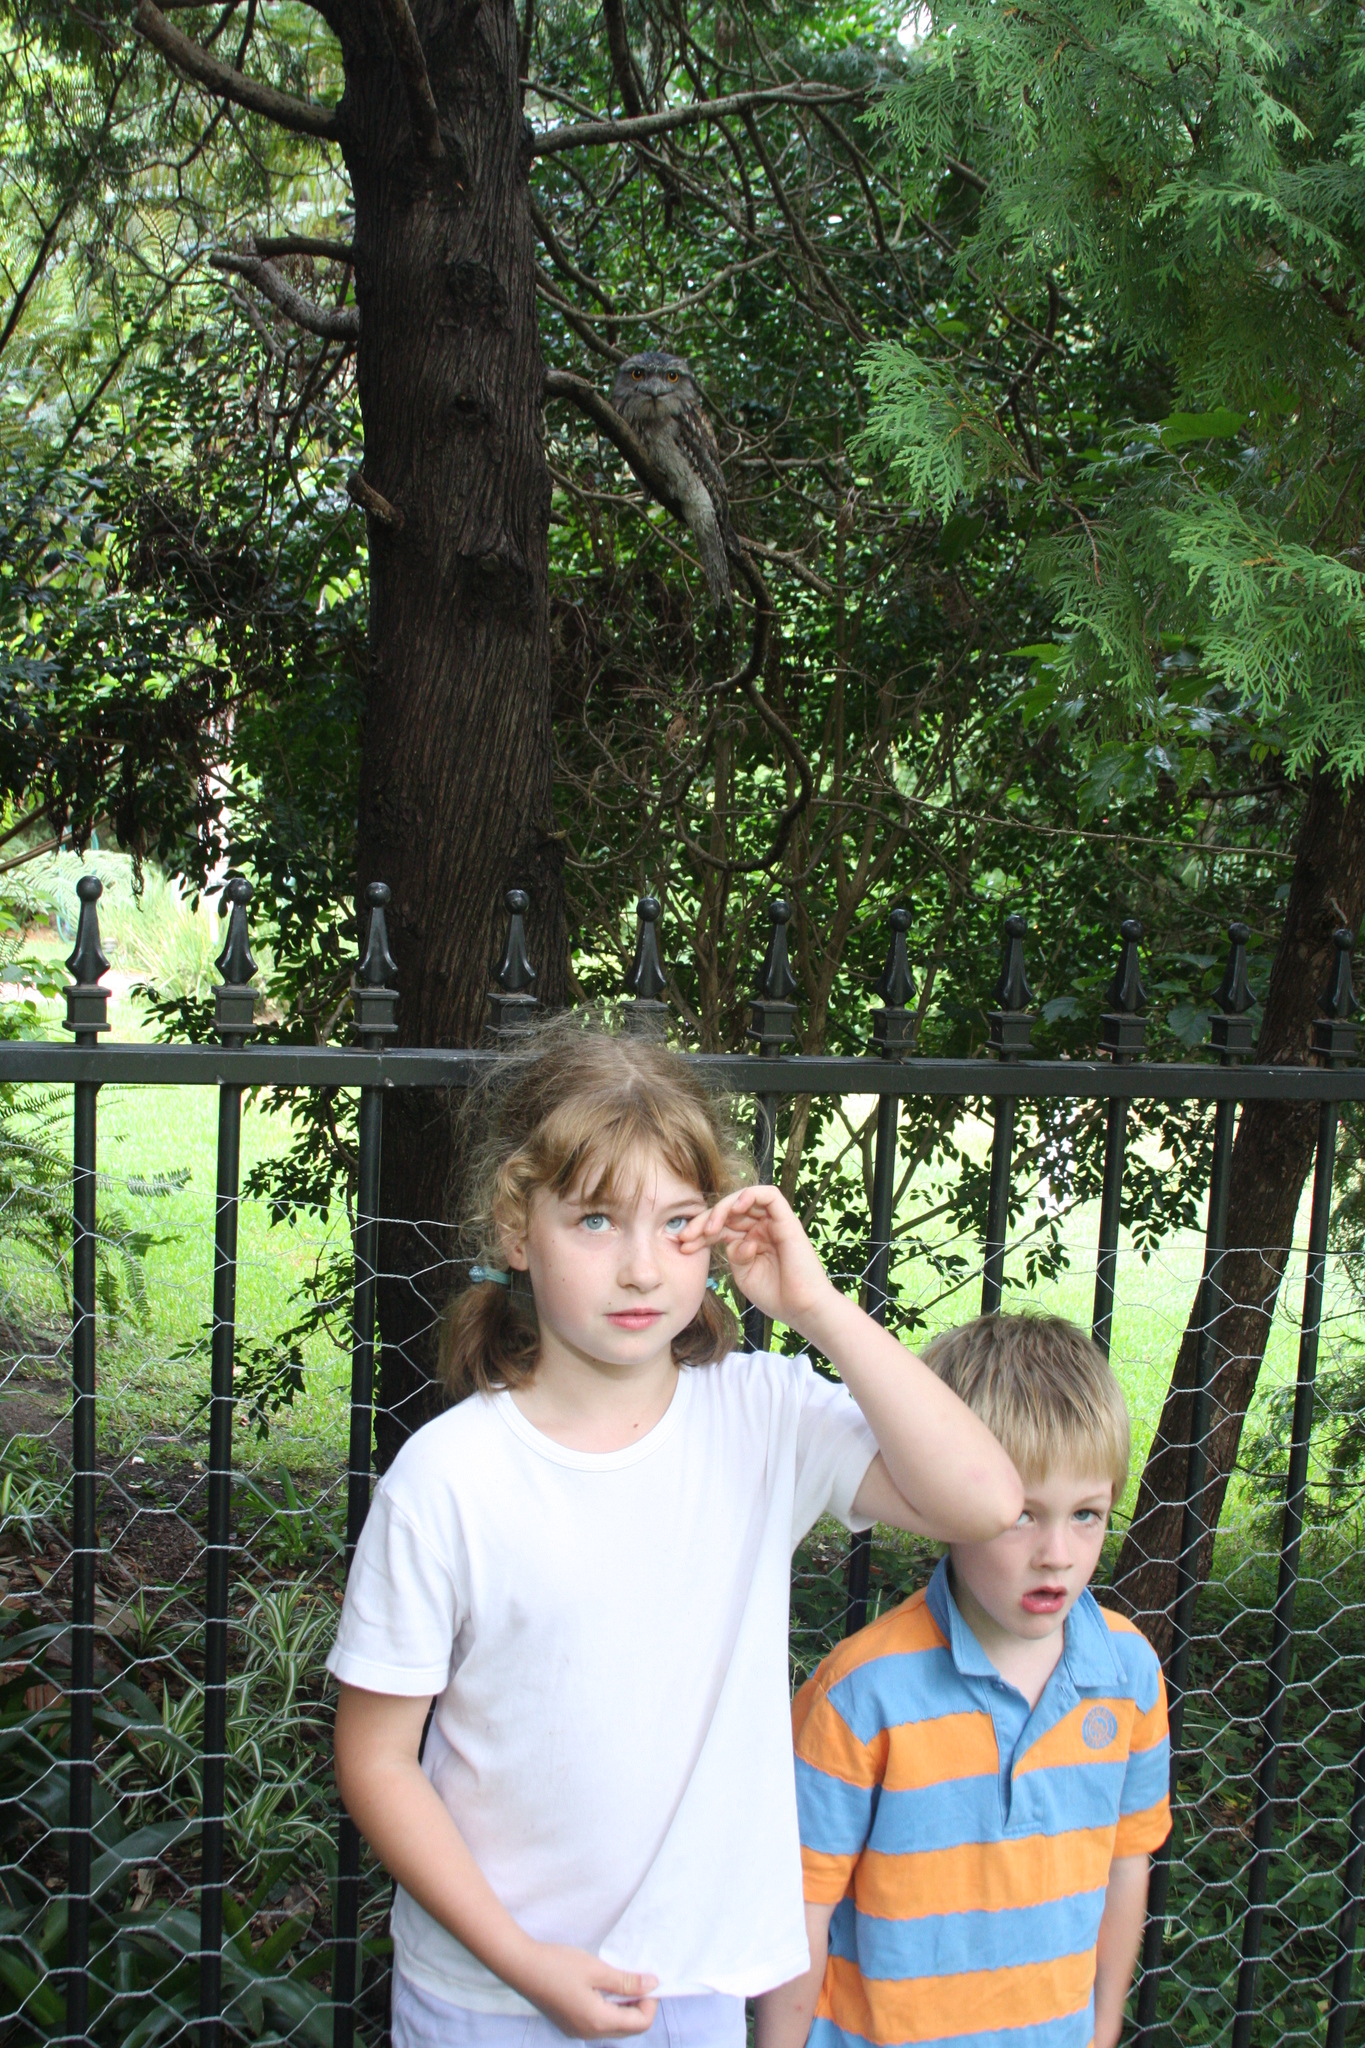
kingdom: Animalia
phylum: Chordata
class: Aves
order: Caprimulgiformes
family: Podargidae
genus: Podargus
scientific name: Podargus strigoides
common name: Tawny frogmouth
